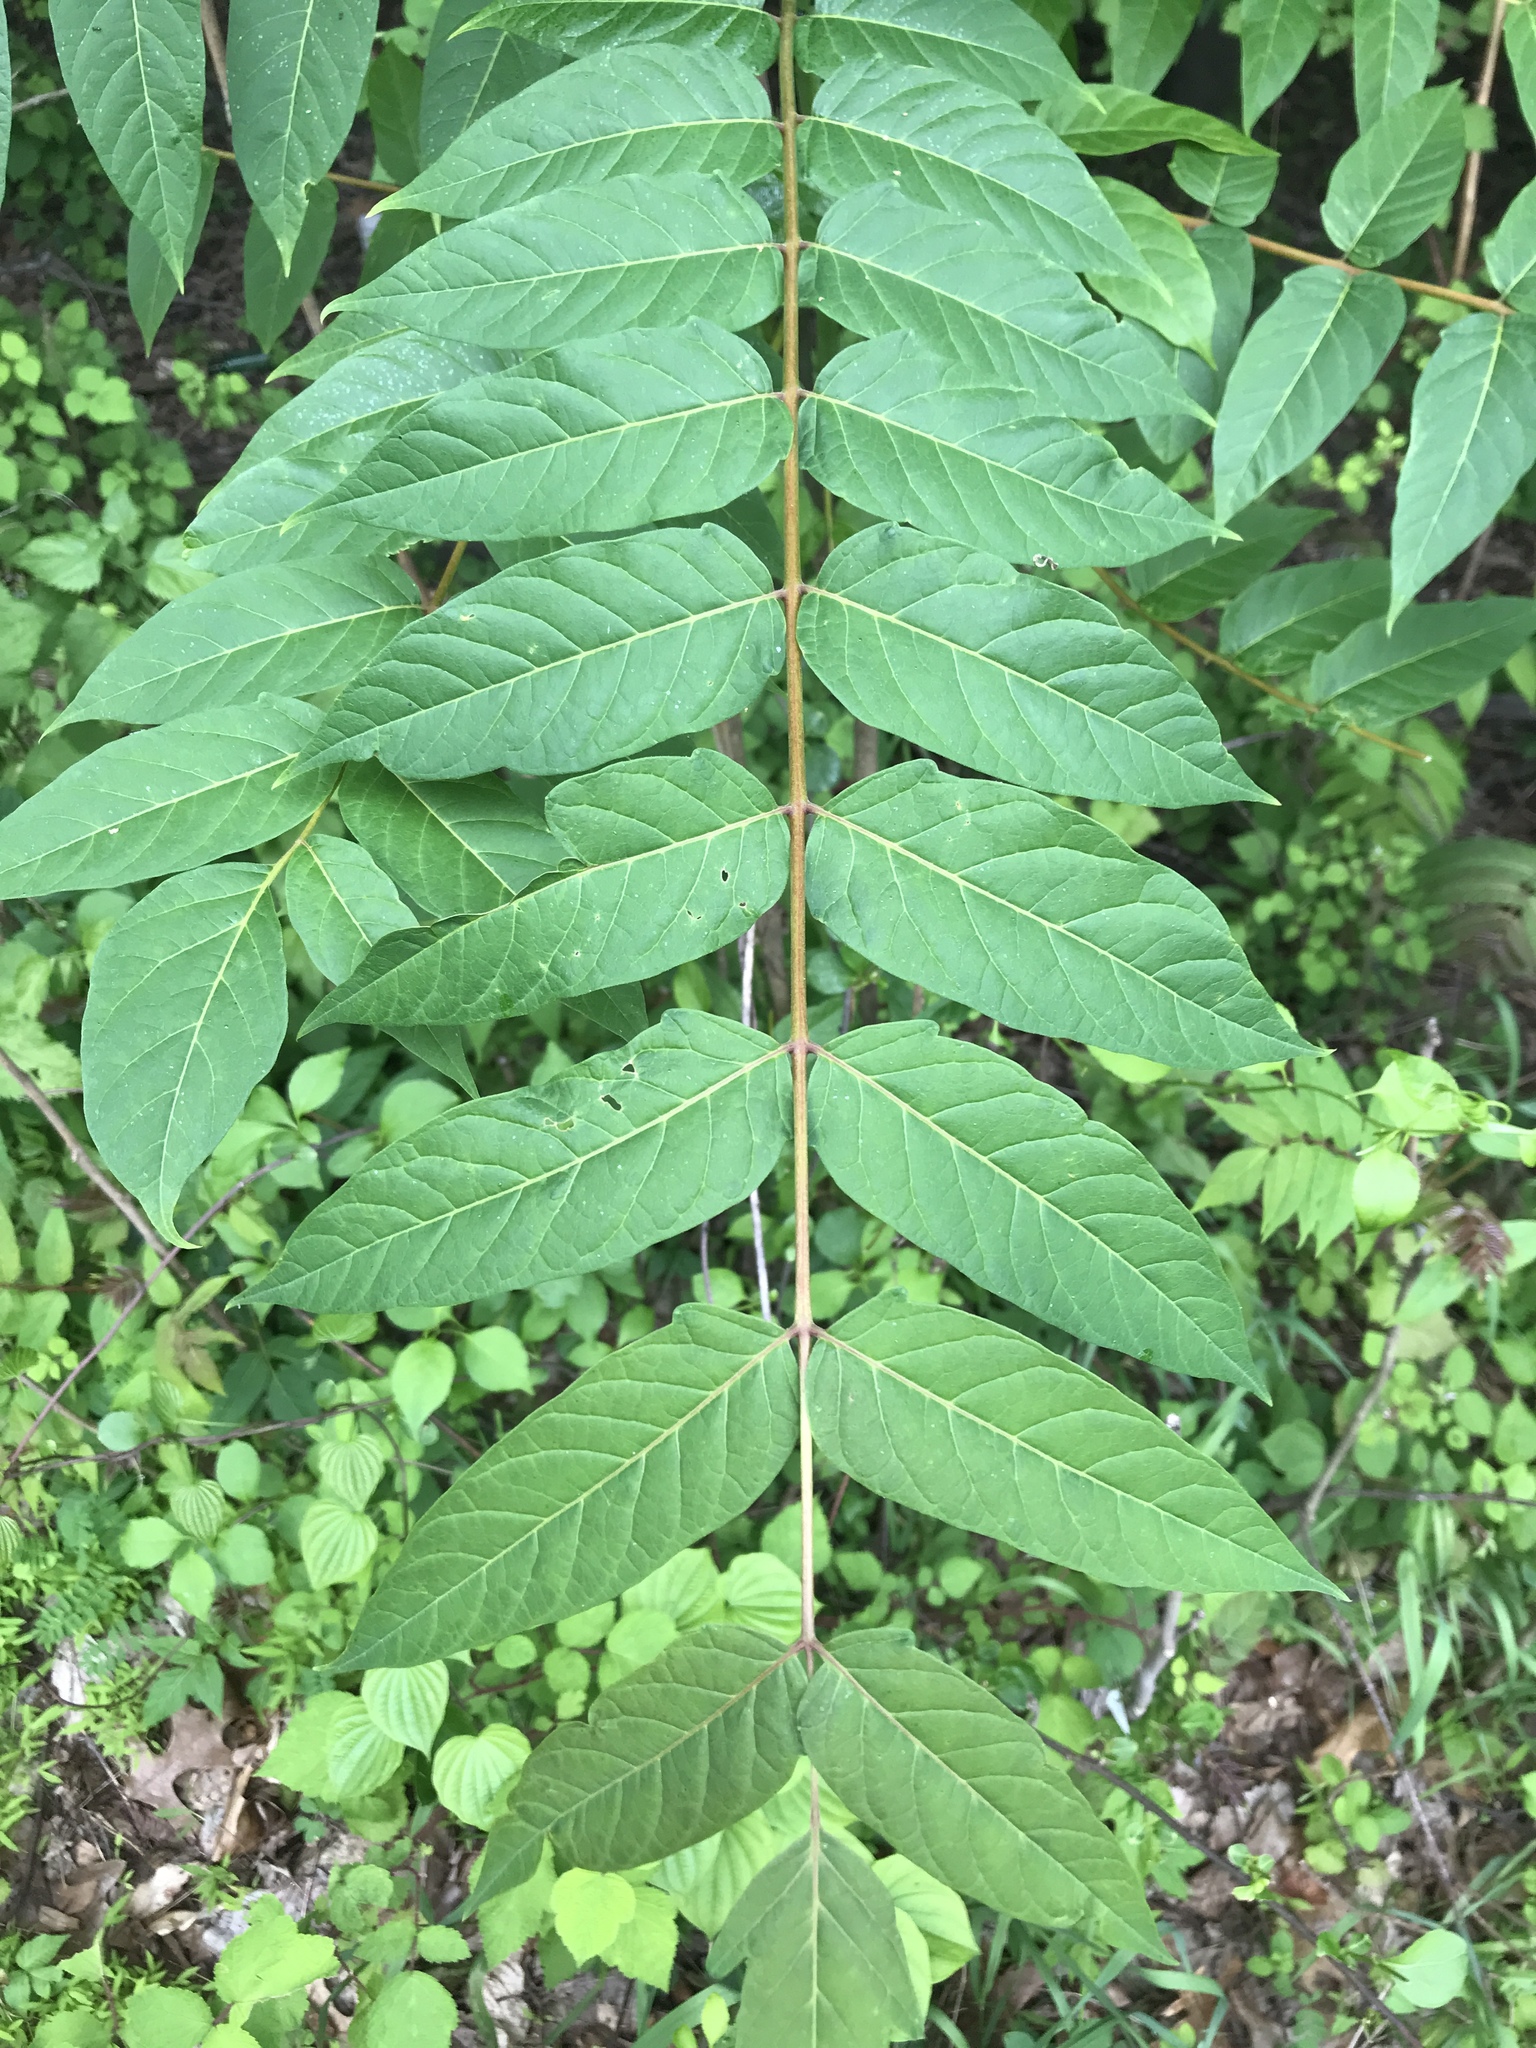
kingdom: Plantae
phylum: Tracheophyta
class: Magnoliopsida
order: Sapindales
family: Simaroubaceae
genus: Ailanthus
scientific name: Ailanthus altissima
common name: Tree-of-heaven
